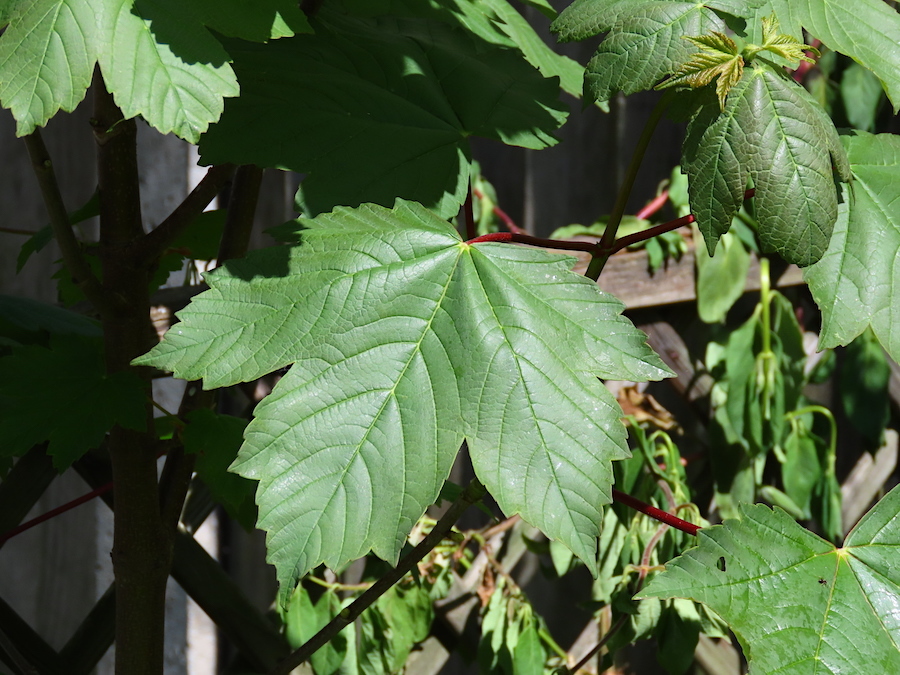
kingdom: Plantae
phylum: Tracheophyta
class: Magnoliopsida
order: Sapindales
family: Sapindaceae
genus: Acer
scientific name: Acer pseudoplatanus
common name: Sycamore
